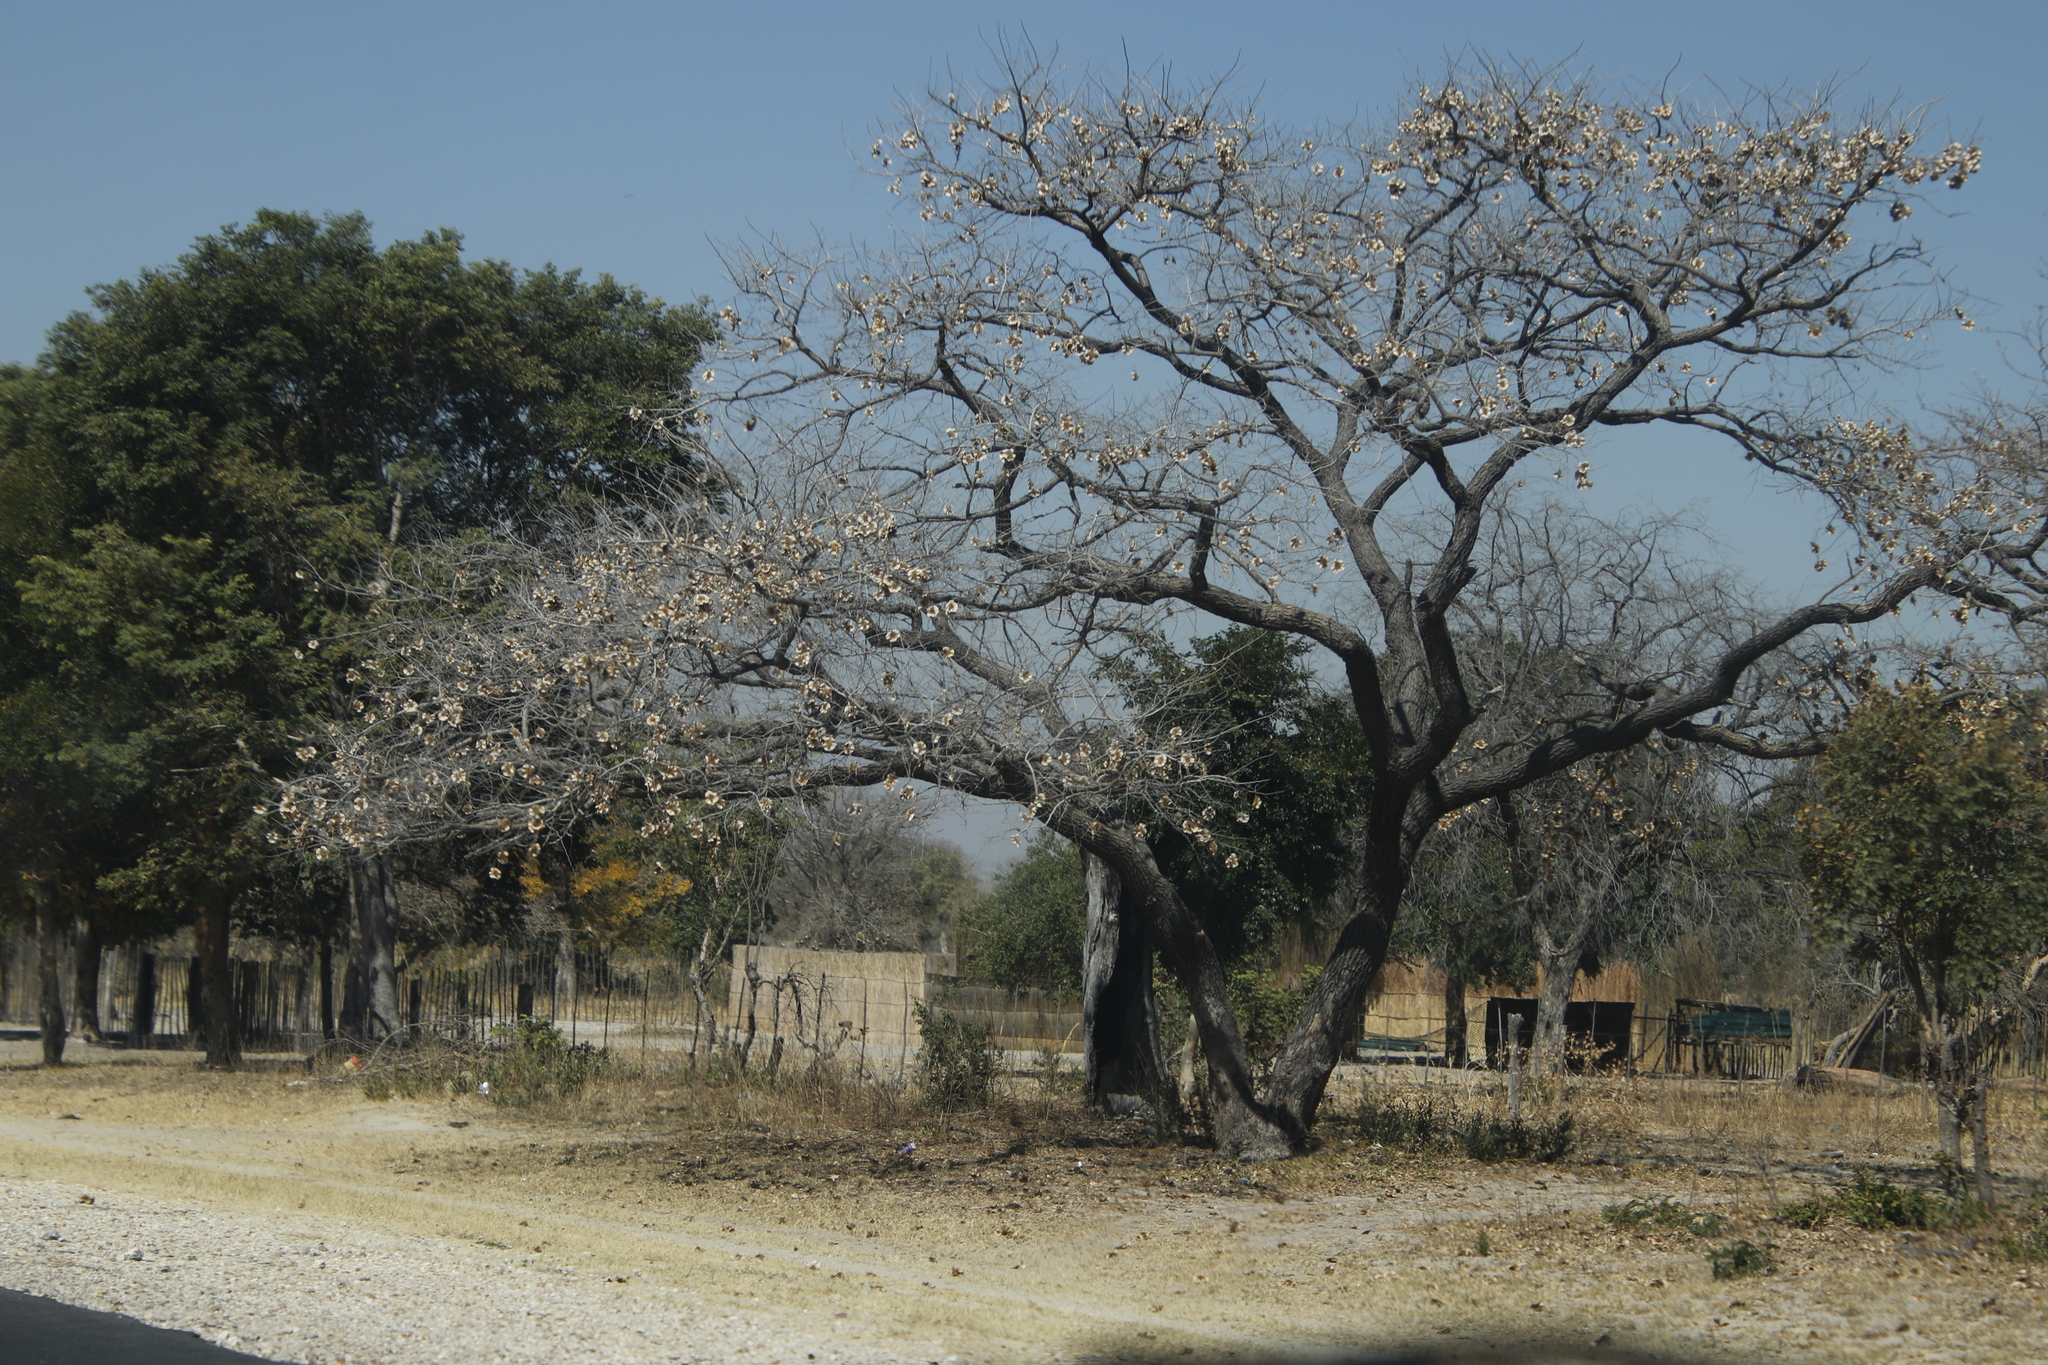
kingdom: Plantae
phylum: Tracheophyta
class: Magnoliopsida
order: Fabales
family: Fabaceae
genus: Pterocarpus
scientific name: Pterocarpus angolensis
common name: Bloodwood tree
